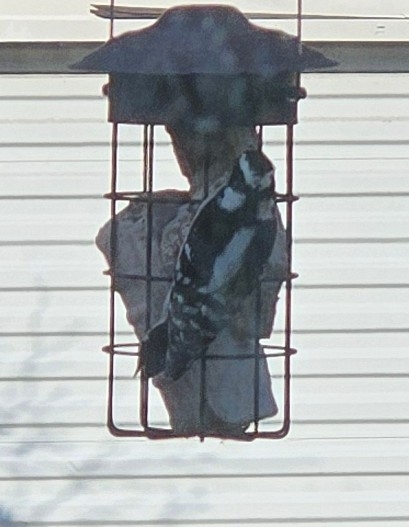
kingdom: Animalia
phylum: Chordata
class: Aves
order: Piciformes
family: Picidae
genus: Dryobates
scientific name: Dryobates pubescens
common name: Downy woodpecker
